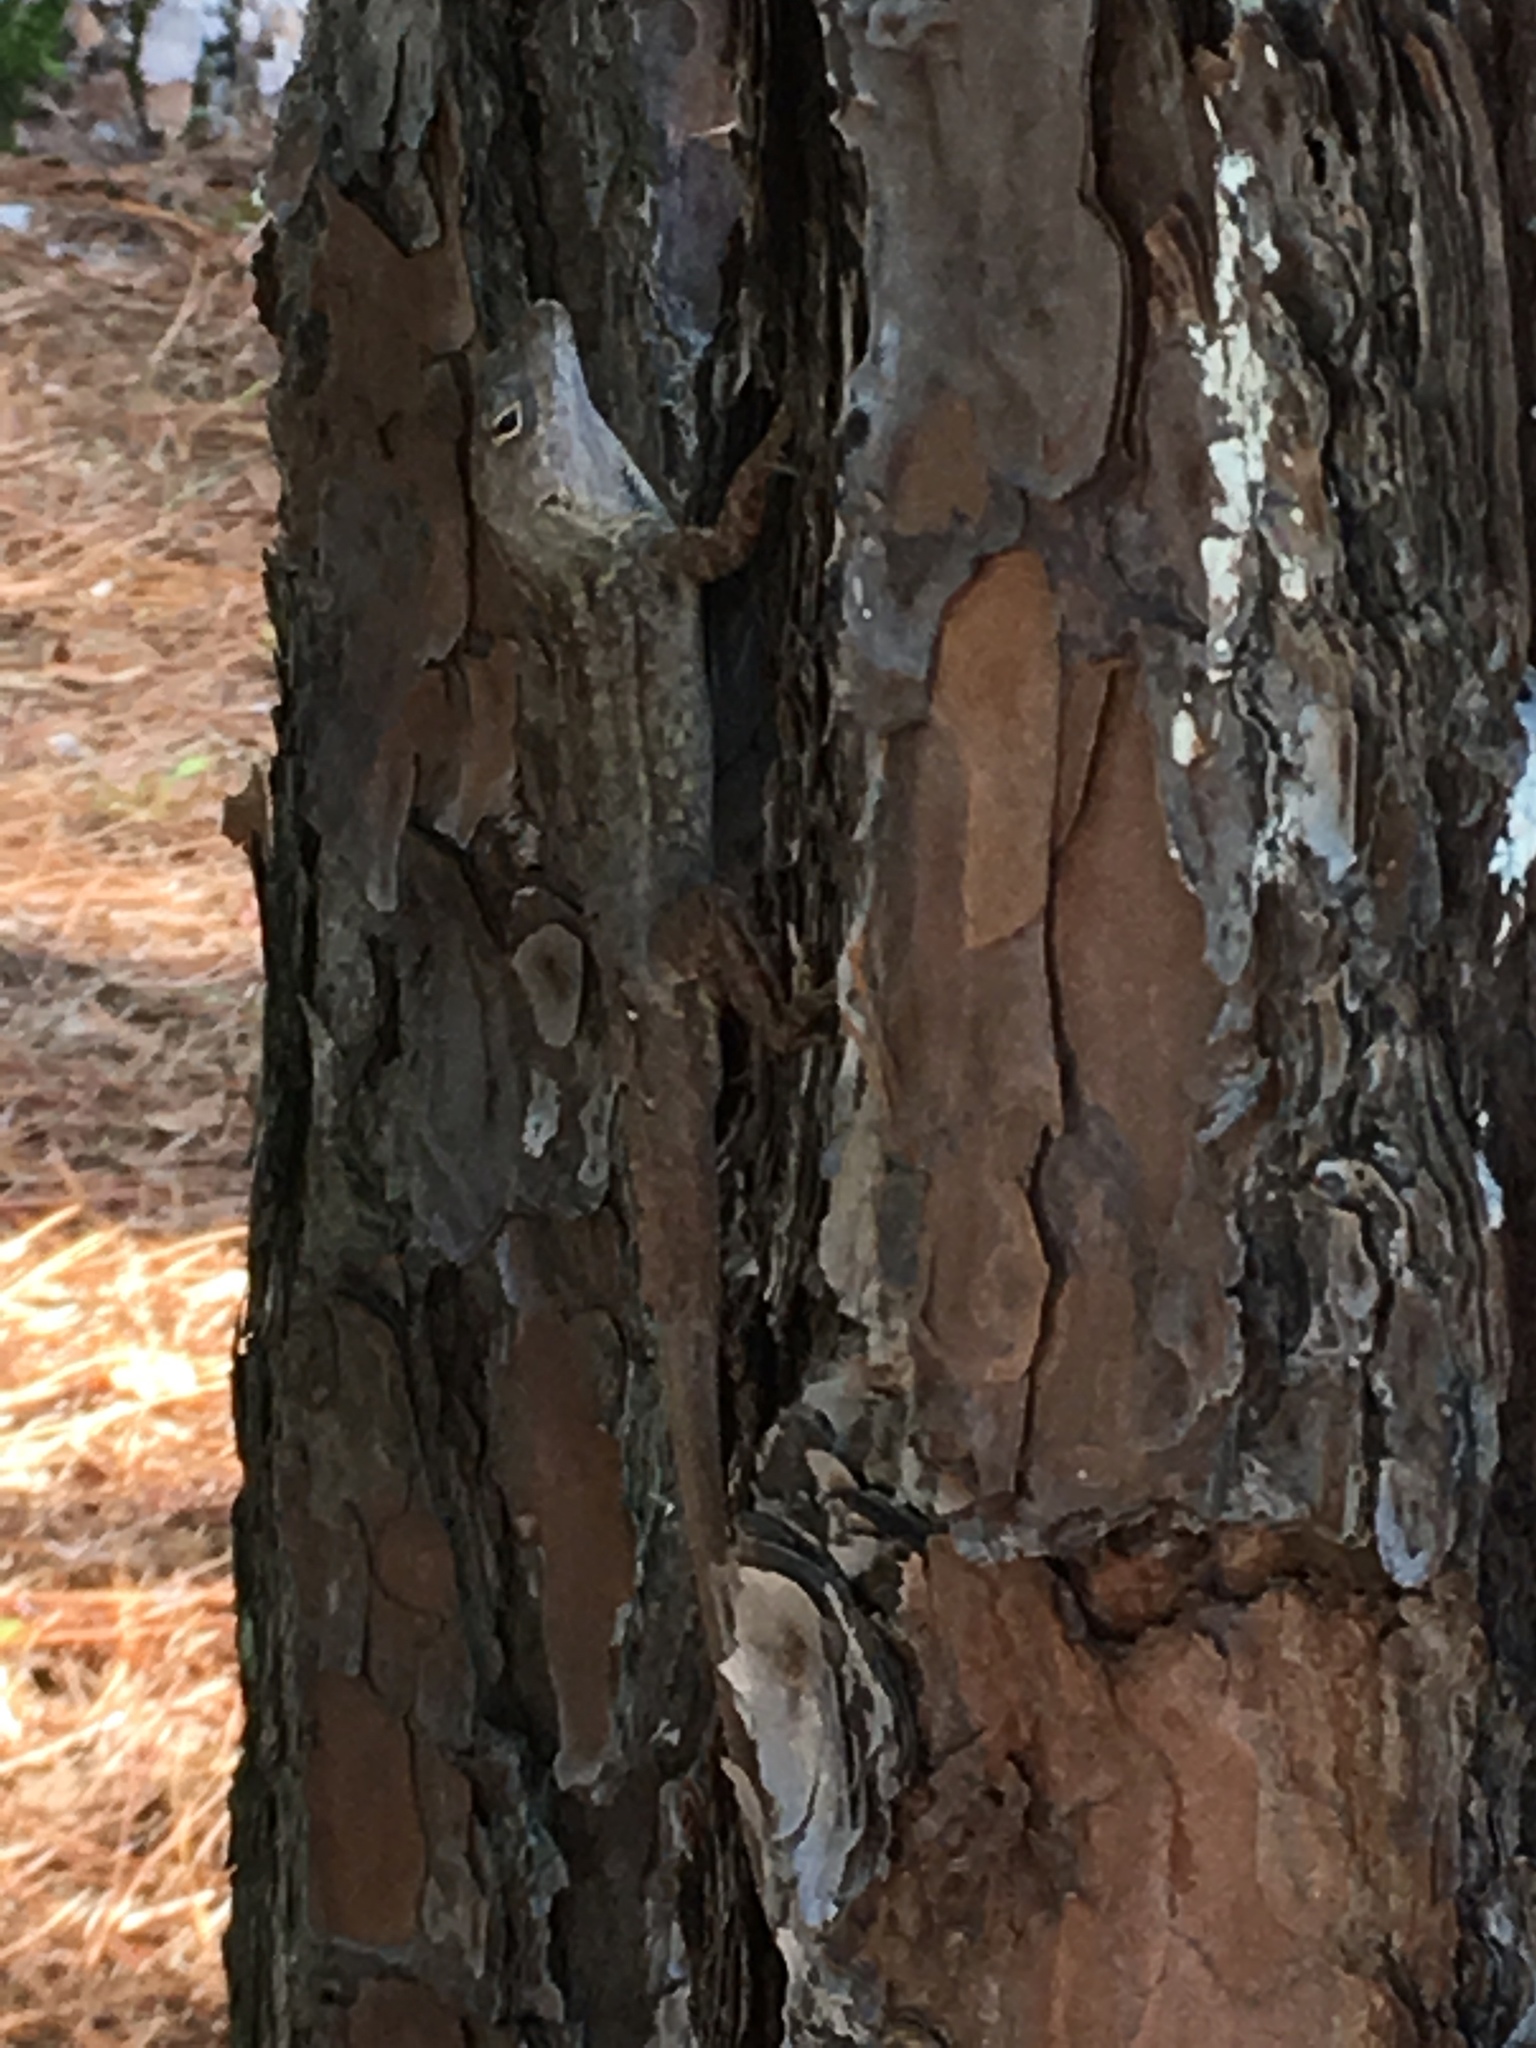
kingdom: Animalia
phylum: Chordata
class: Squamata
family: Dactyloidae
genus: Anolis
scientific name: Anolis sagrei
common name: Brown anole
